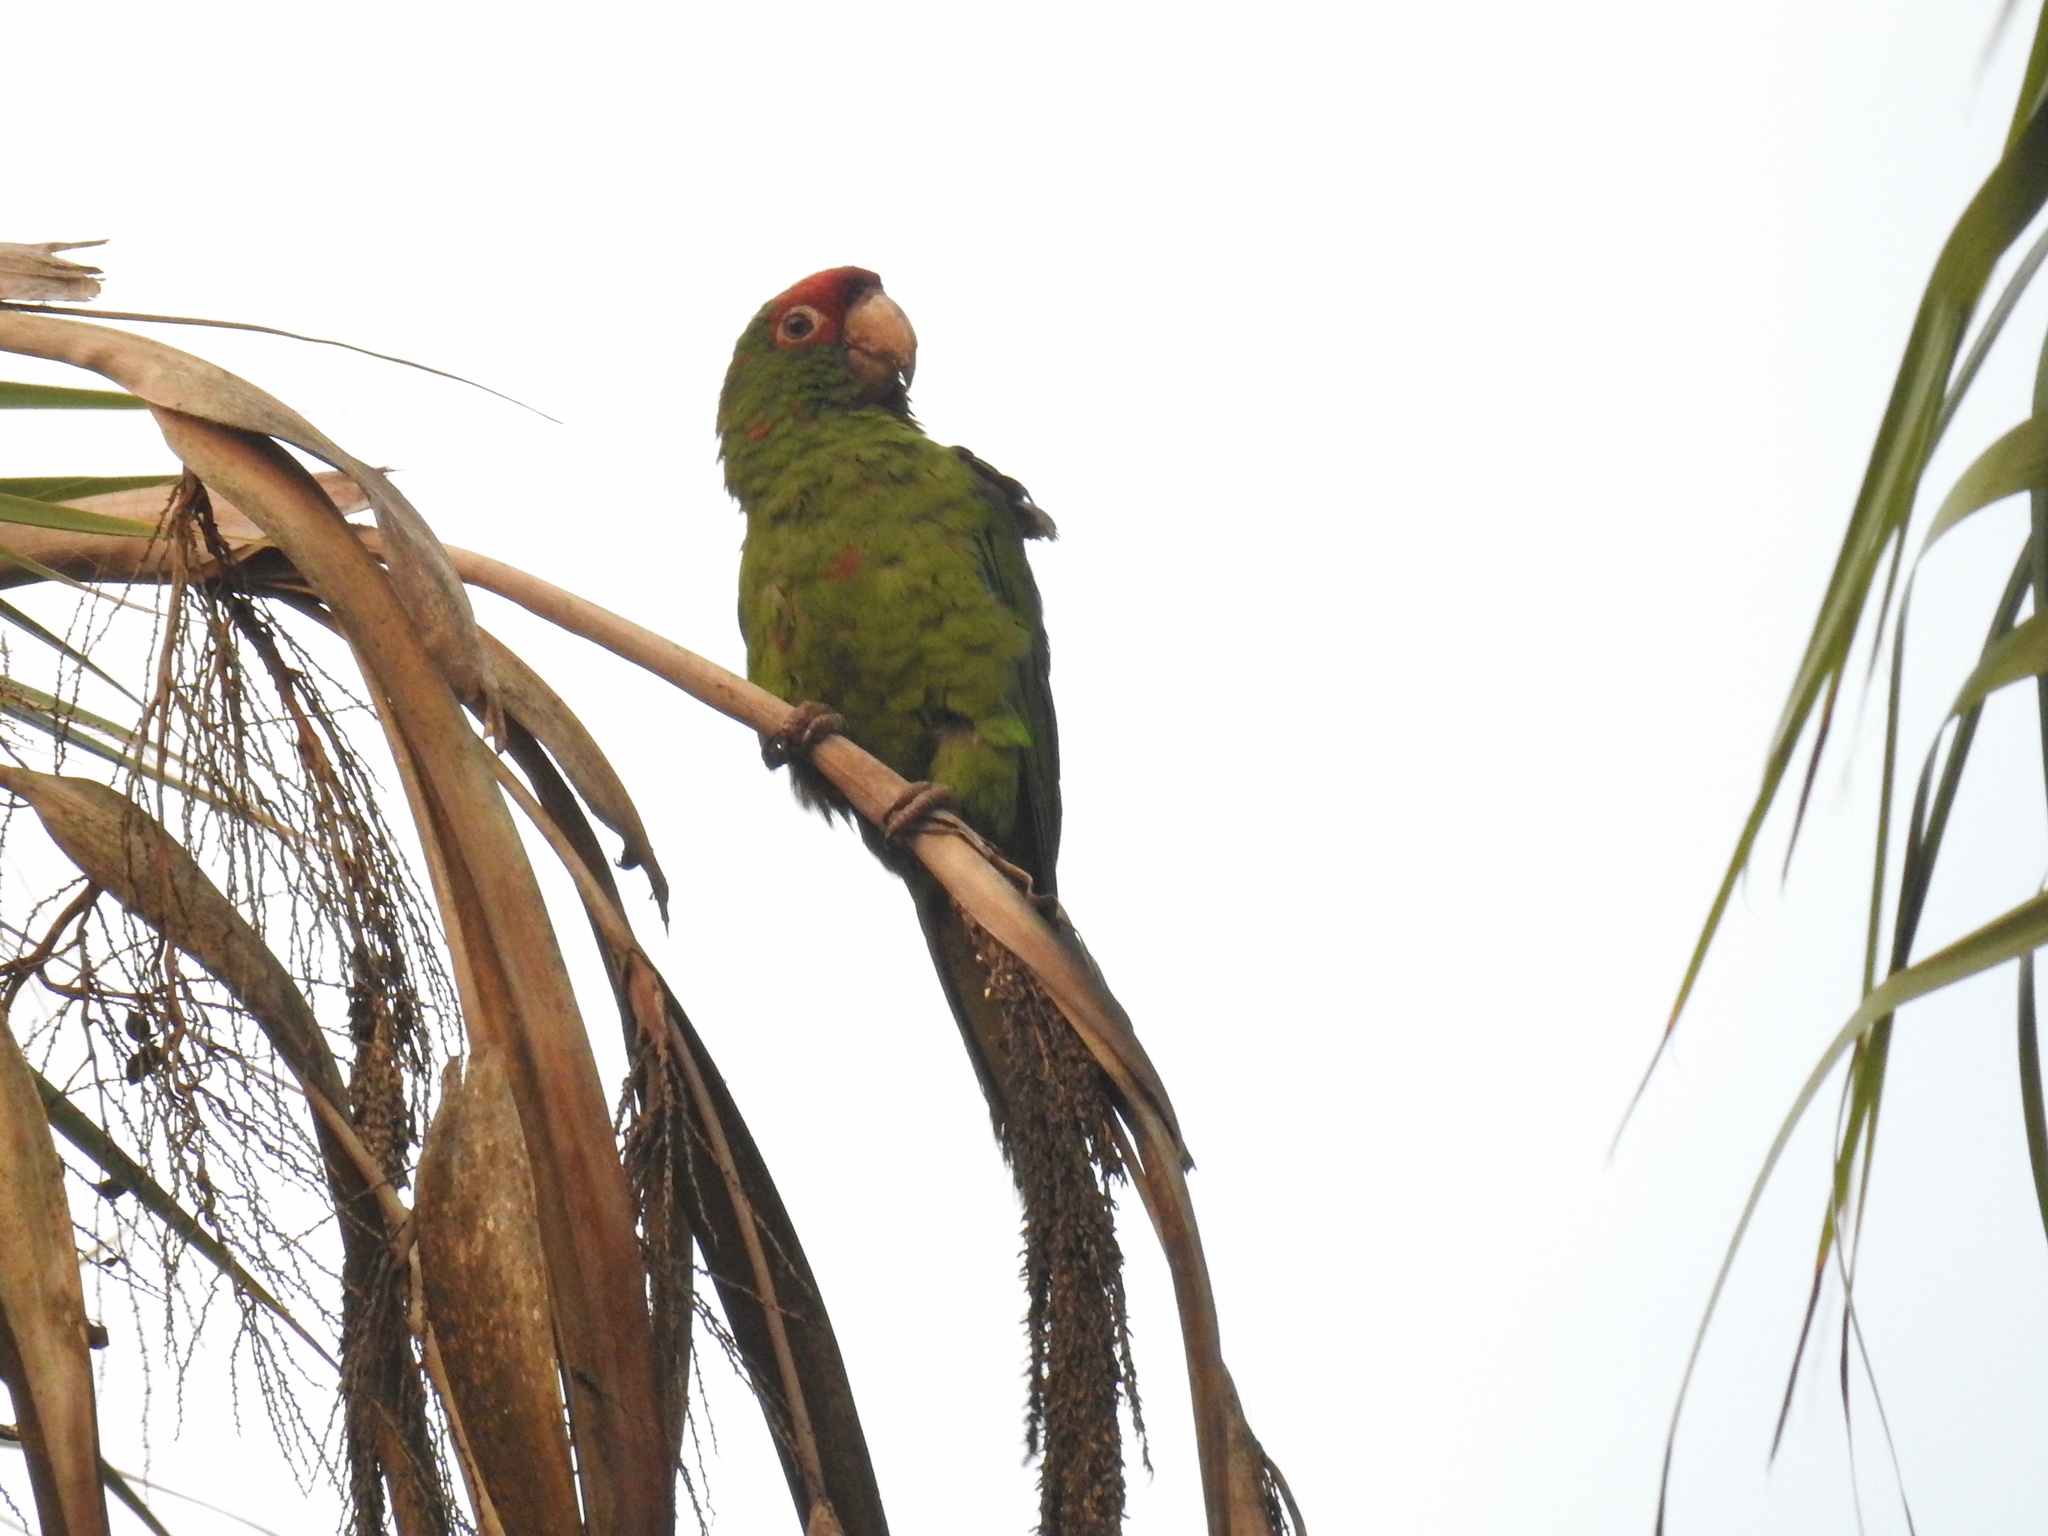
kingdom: Animalia
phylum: Chordata
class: Aves
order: Psittaciformes
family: Psittacidae
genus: Aratinga
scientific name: Aratinga mitrata
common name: Mitred parakeet
